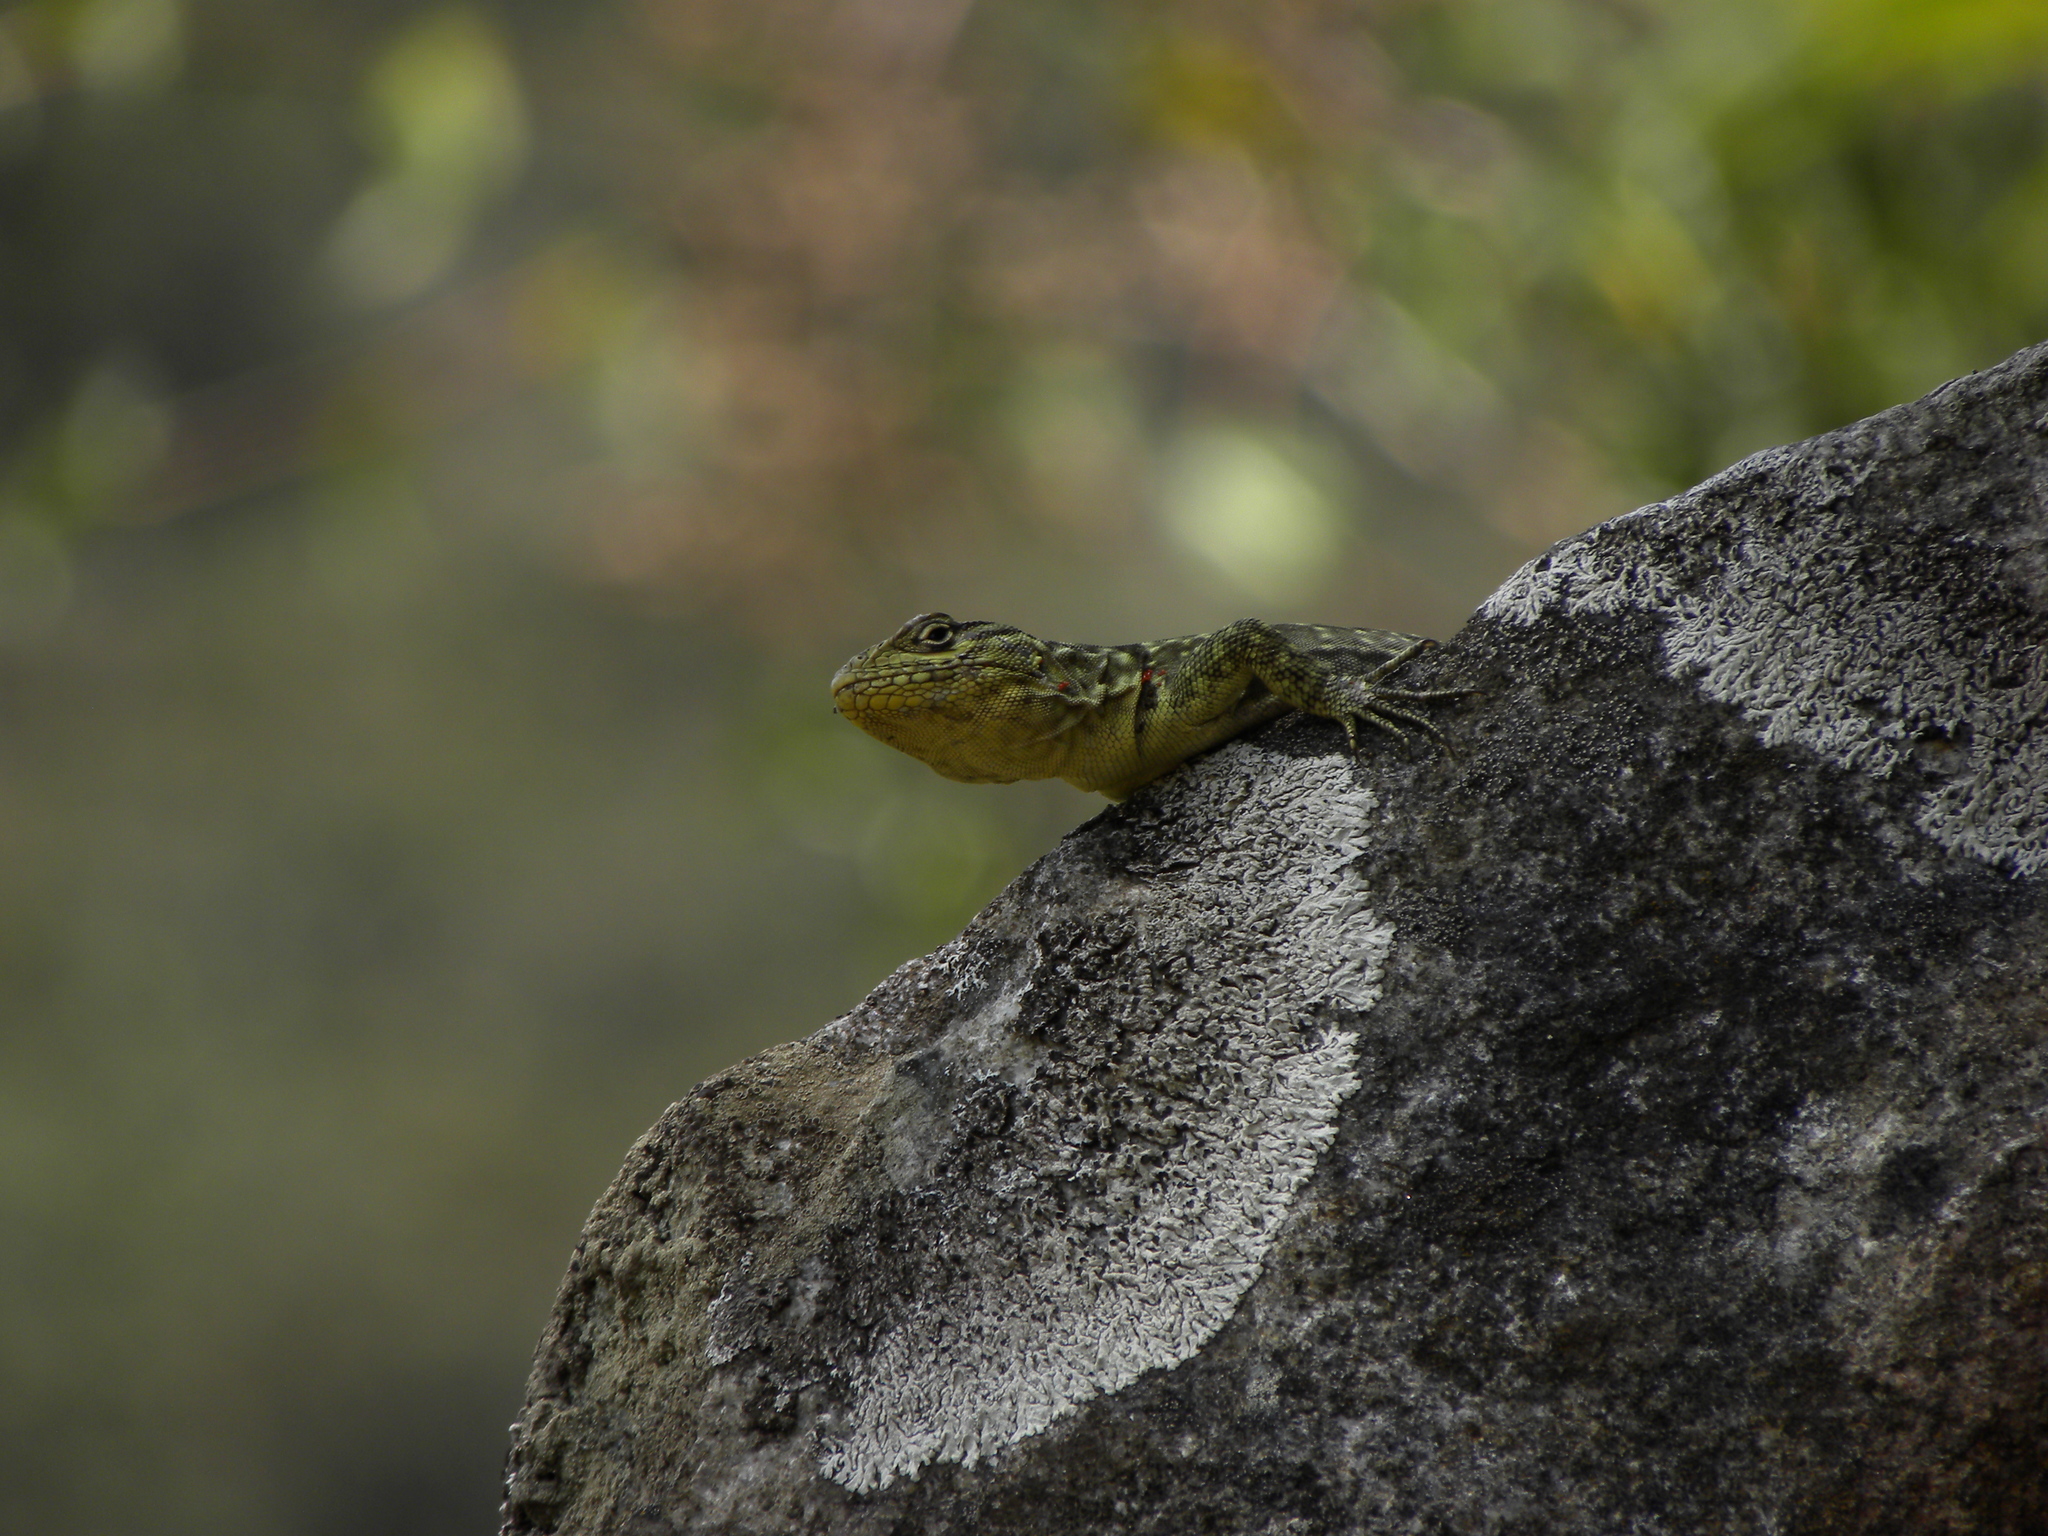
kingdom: Animalia
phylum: Chordata
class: Squamata
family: Tropiduridae
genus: Stenocercus
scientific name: Stenocercus crassicaudatus
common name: Spiny whorltail iguana
